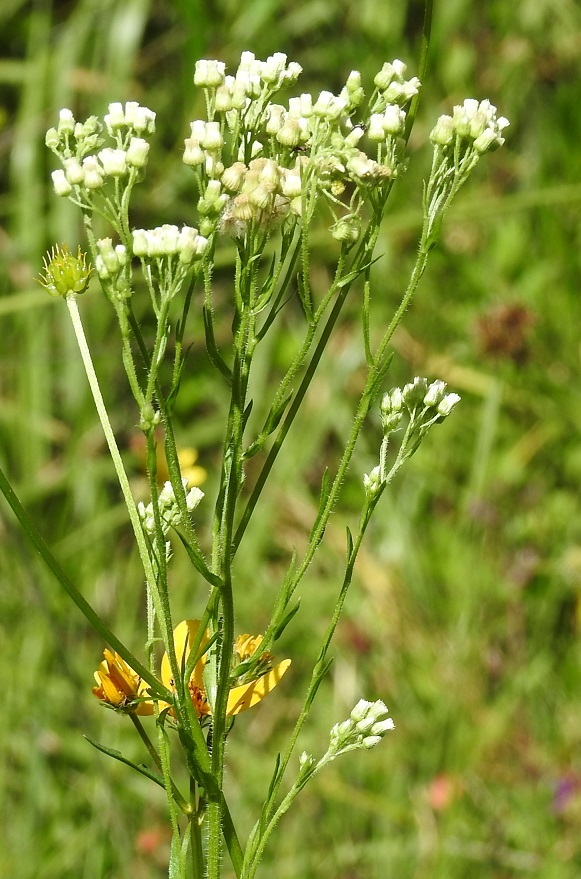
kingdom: Plantae
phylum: Tracheophyta
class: Magnoliopsida
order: Asterales
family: Asteraceae
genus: Erigeron
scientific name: Erigeron bonariensis
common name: Argentine fleabane
